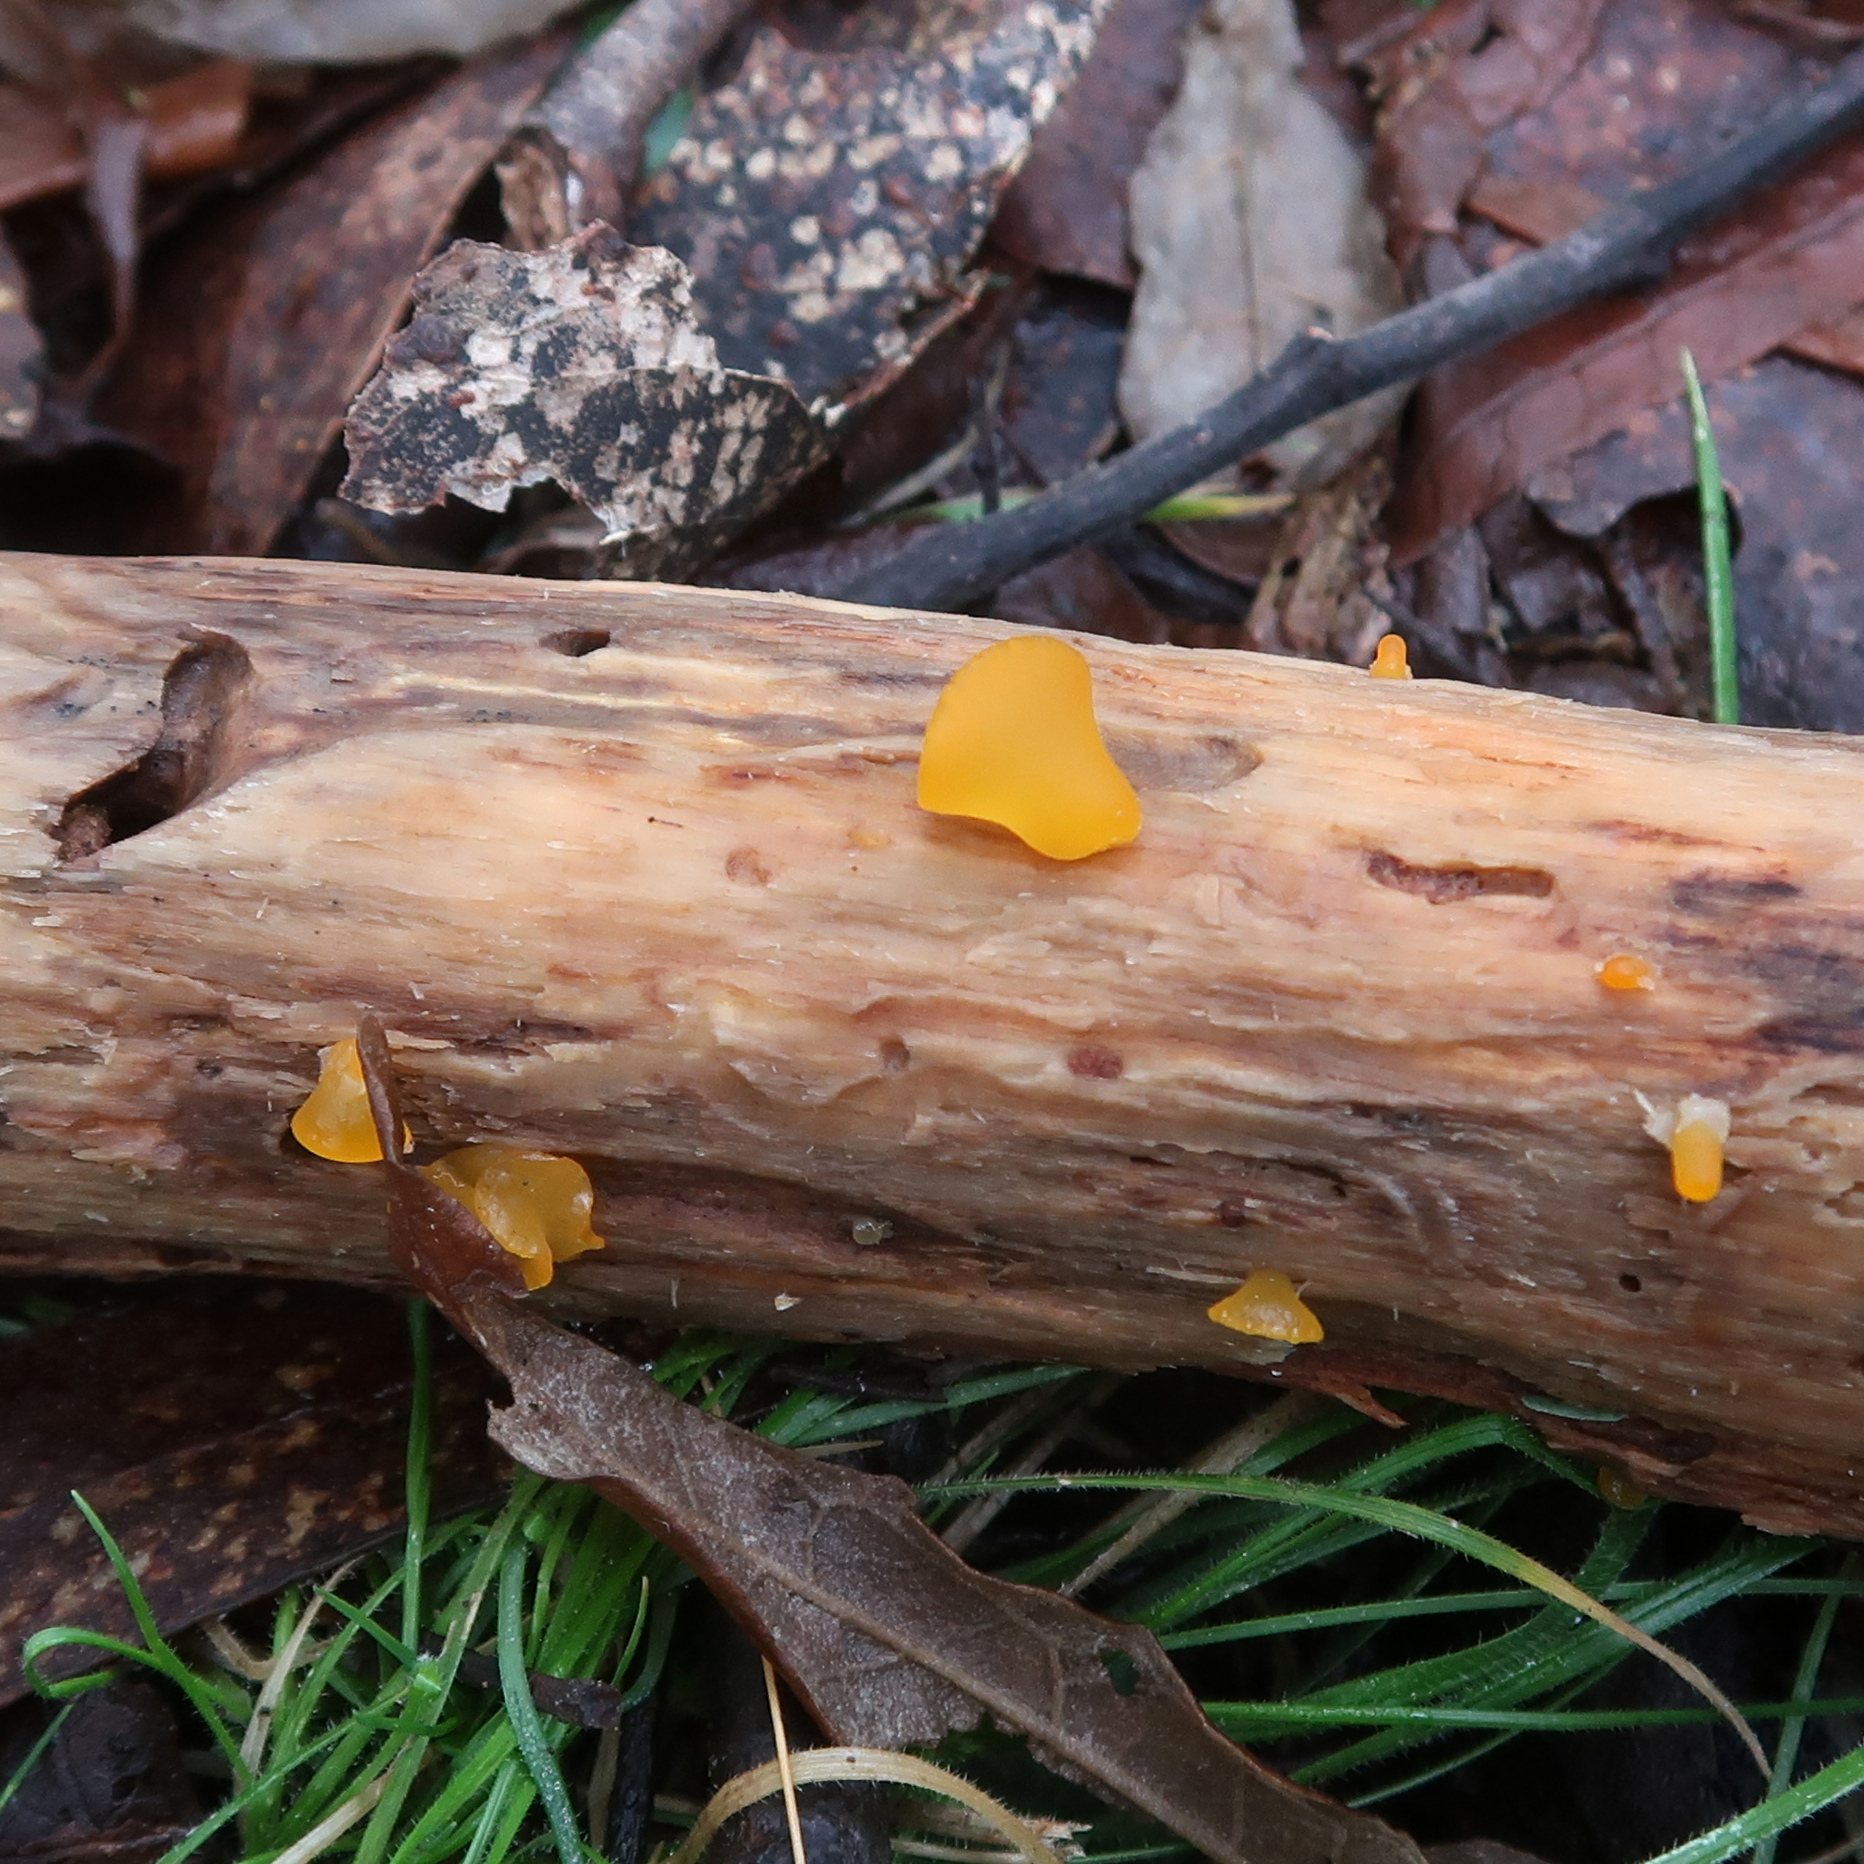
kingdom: Fungi
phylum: Basidiomycota
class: Dacrymycetes
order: Dacrymycetales
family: Dacrymycetaceae
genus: Heterotextus
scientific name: Heterotextus peziziformis
